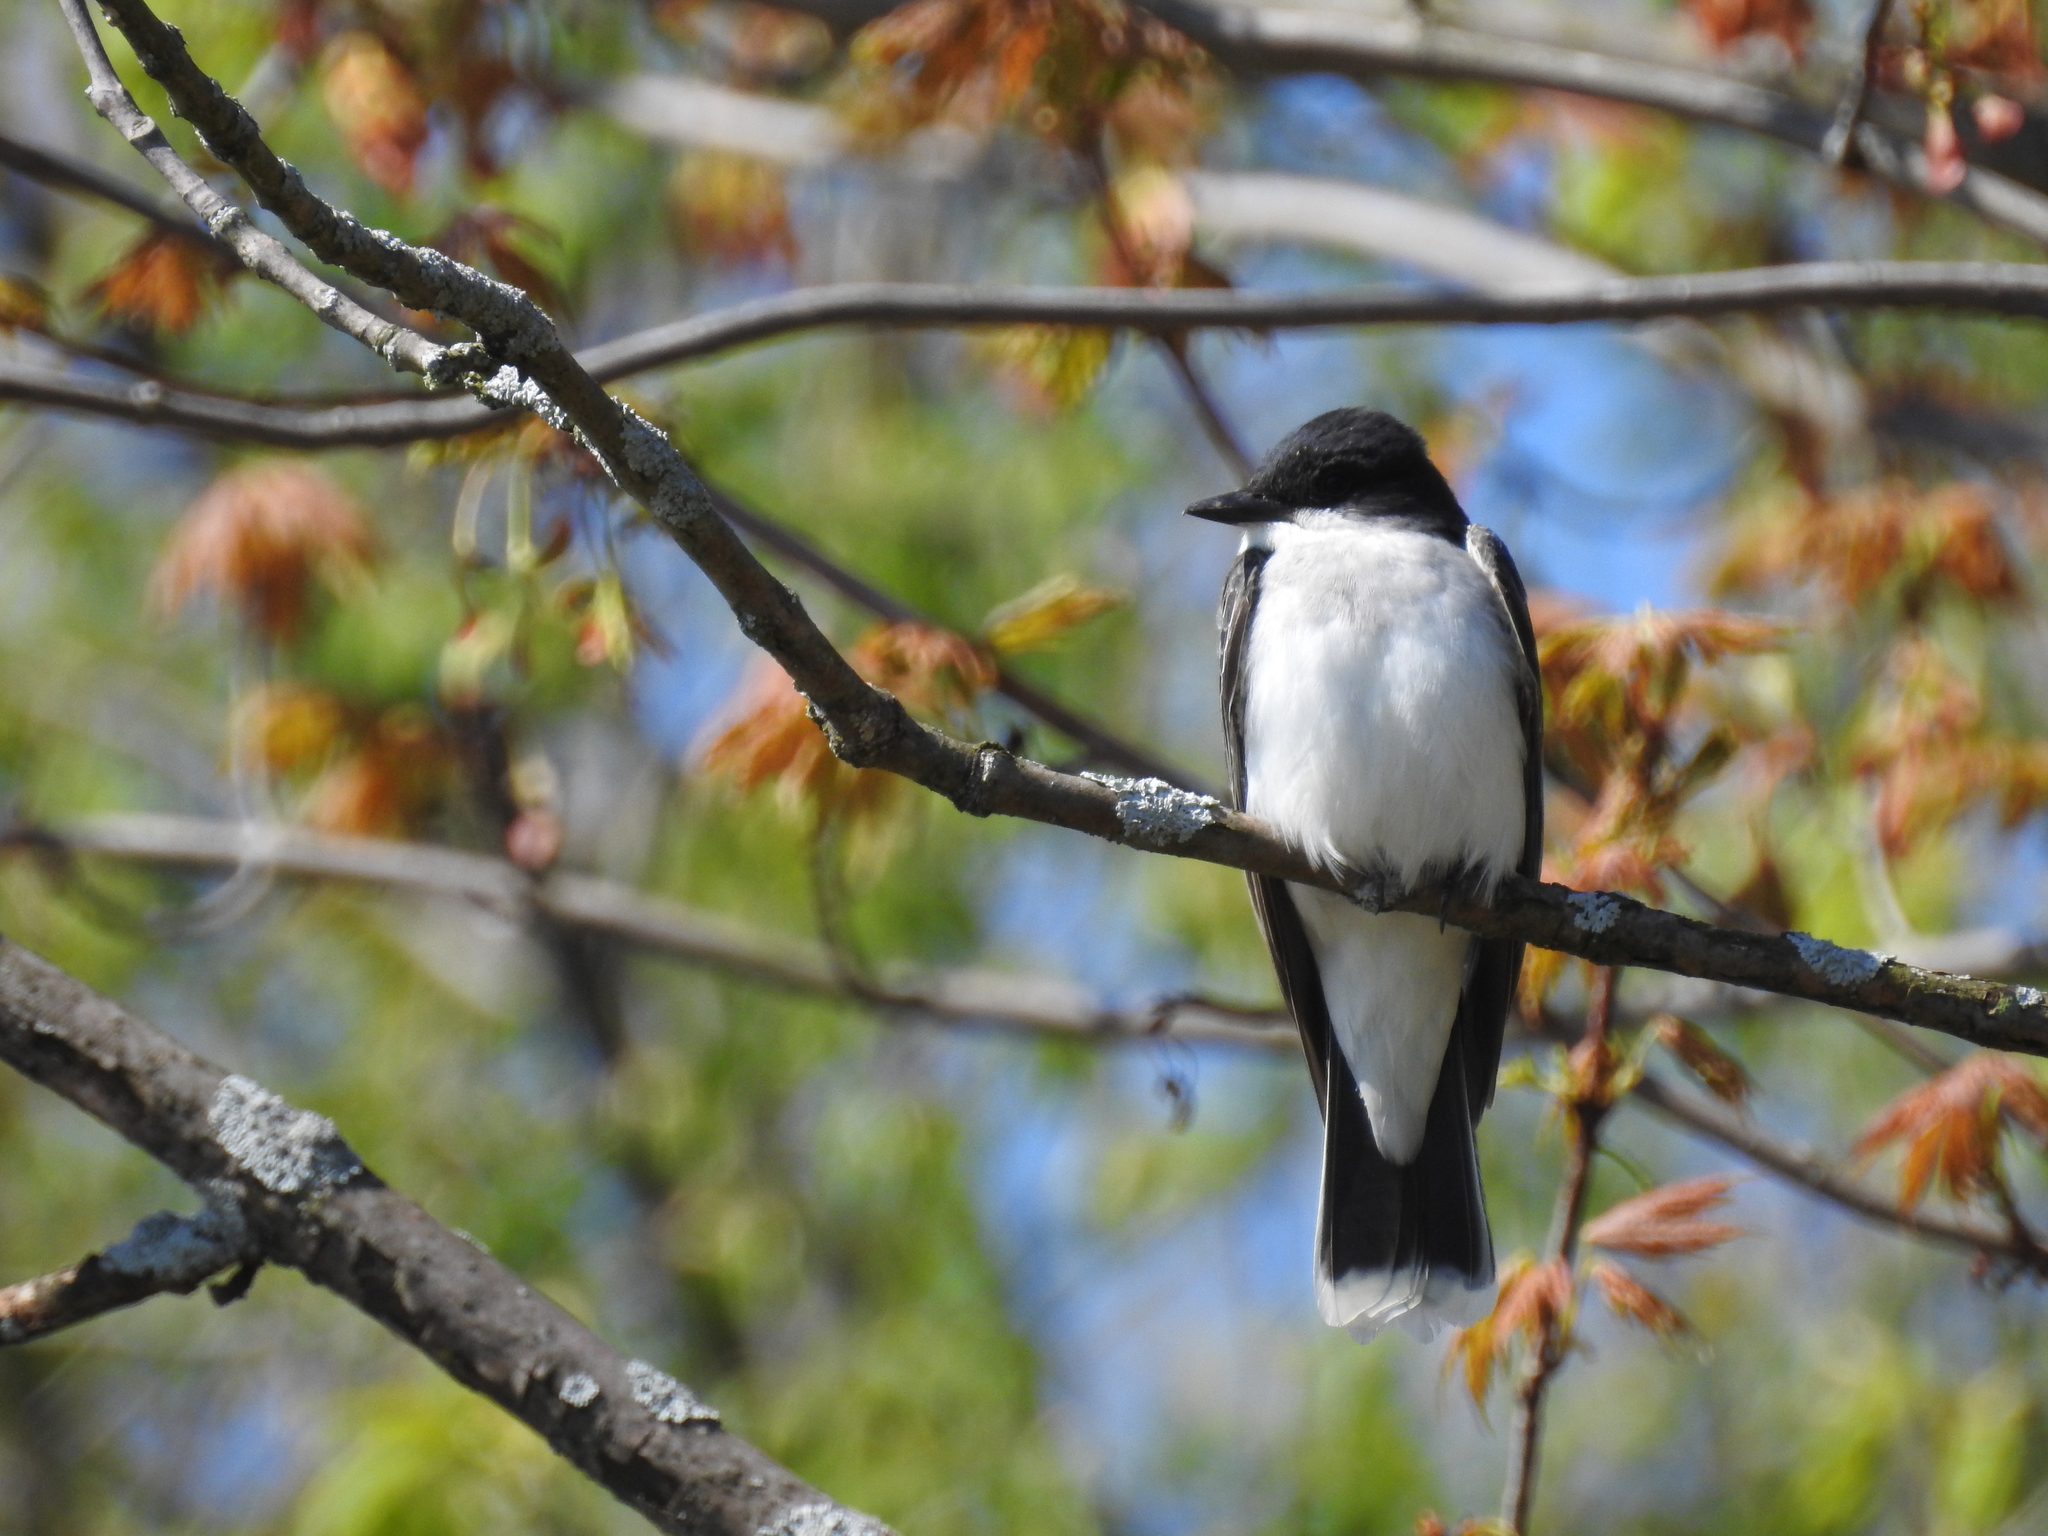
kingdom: Animalia
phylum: Chordata
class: Aves
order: Passeriformes
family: Tyrannidae
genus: Tyrannus
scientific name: Tyrannus tyrannus
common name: Eastern kingbird
